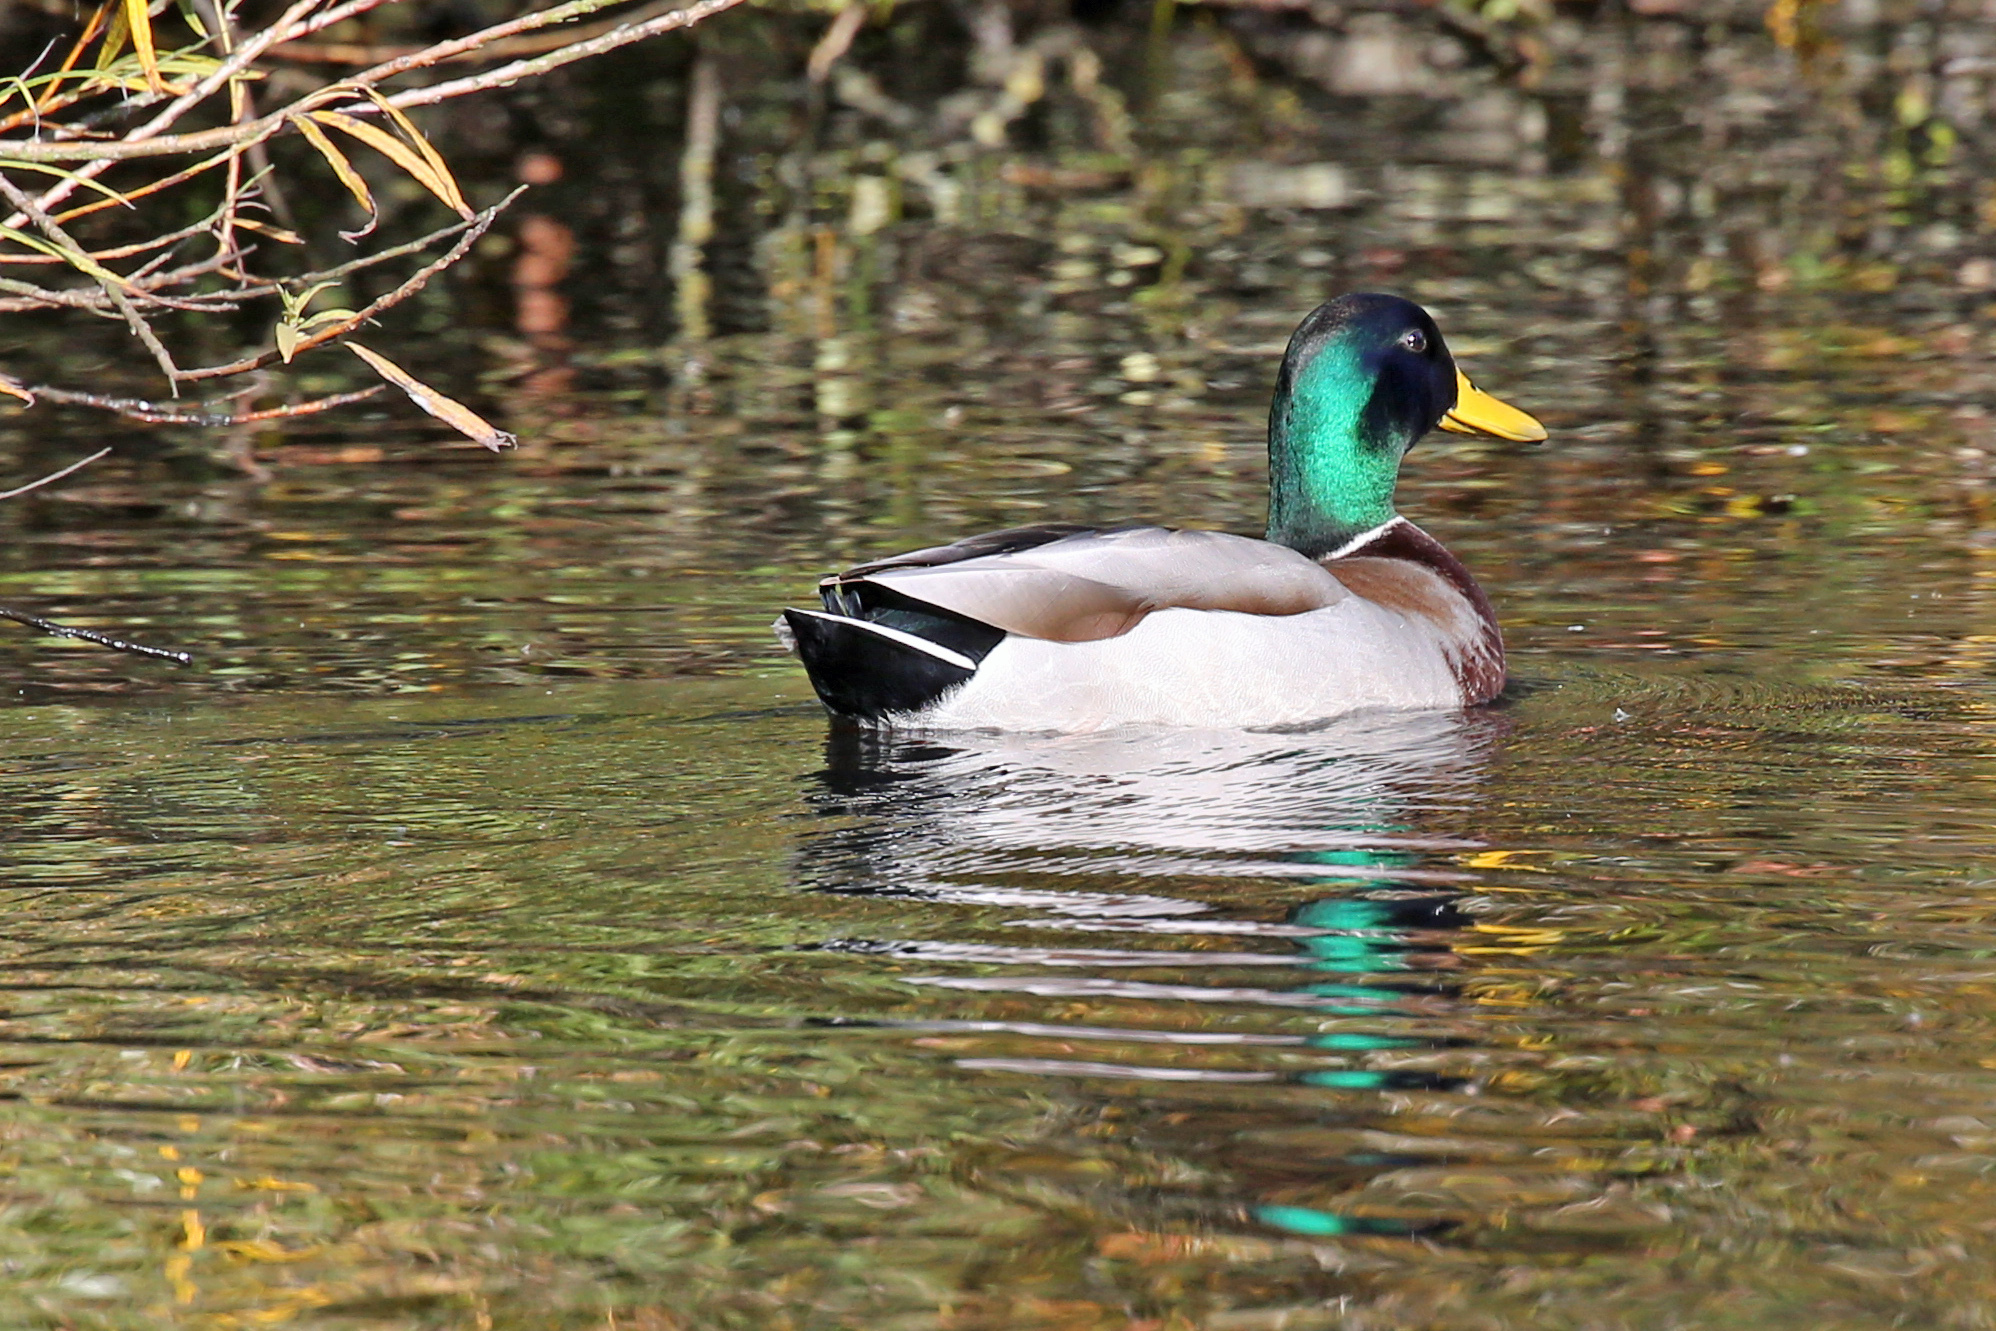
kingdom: Animalia
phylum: Chordata
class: Aves
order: Anseriformes
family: Anatidae
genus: Anas
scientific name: Anas platyrhynchos
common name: Mallard
